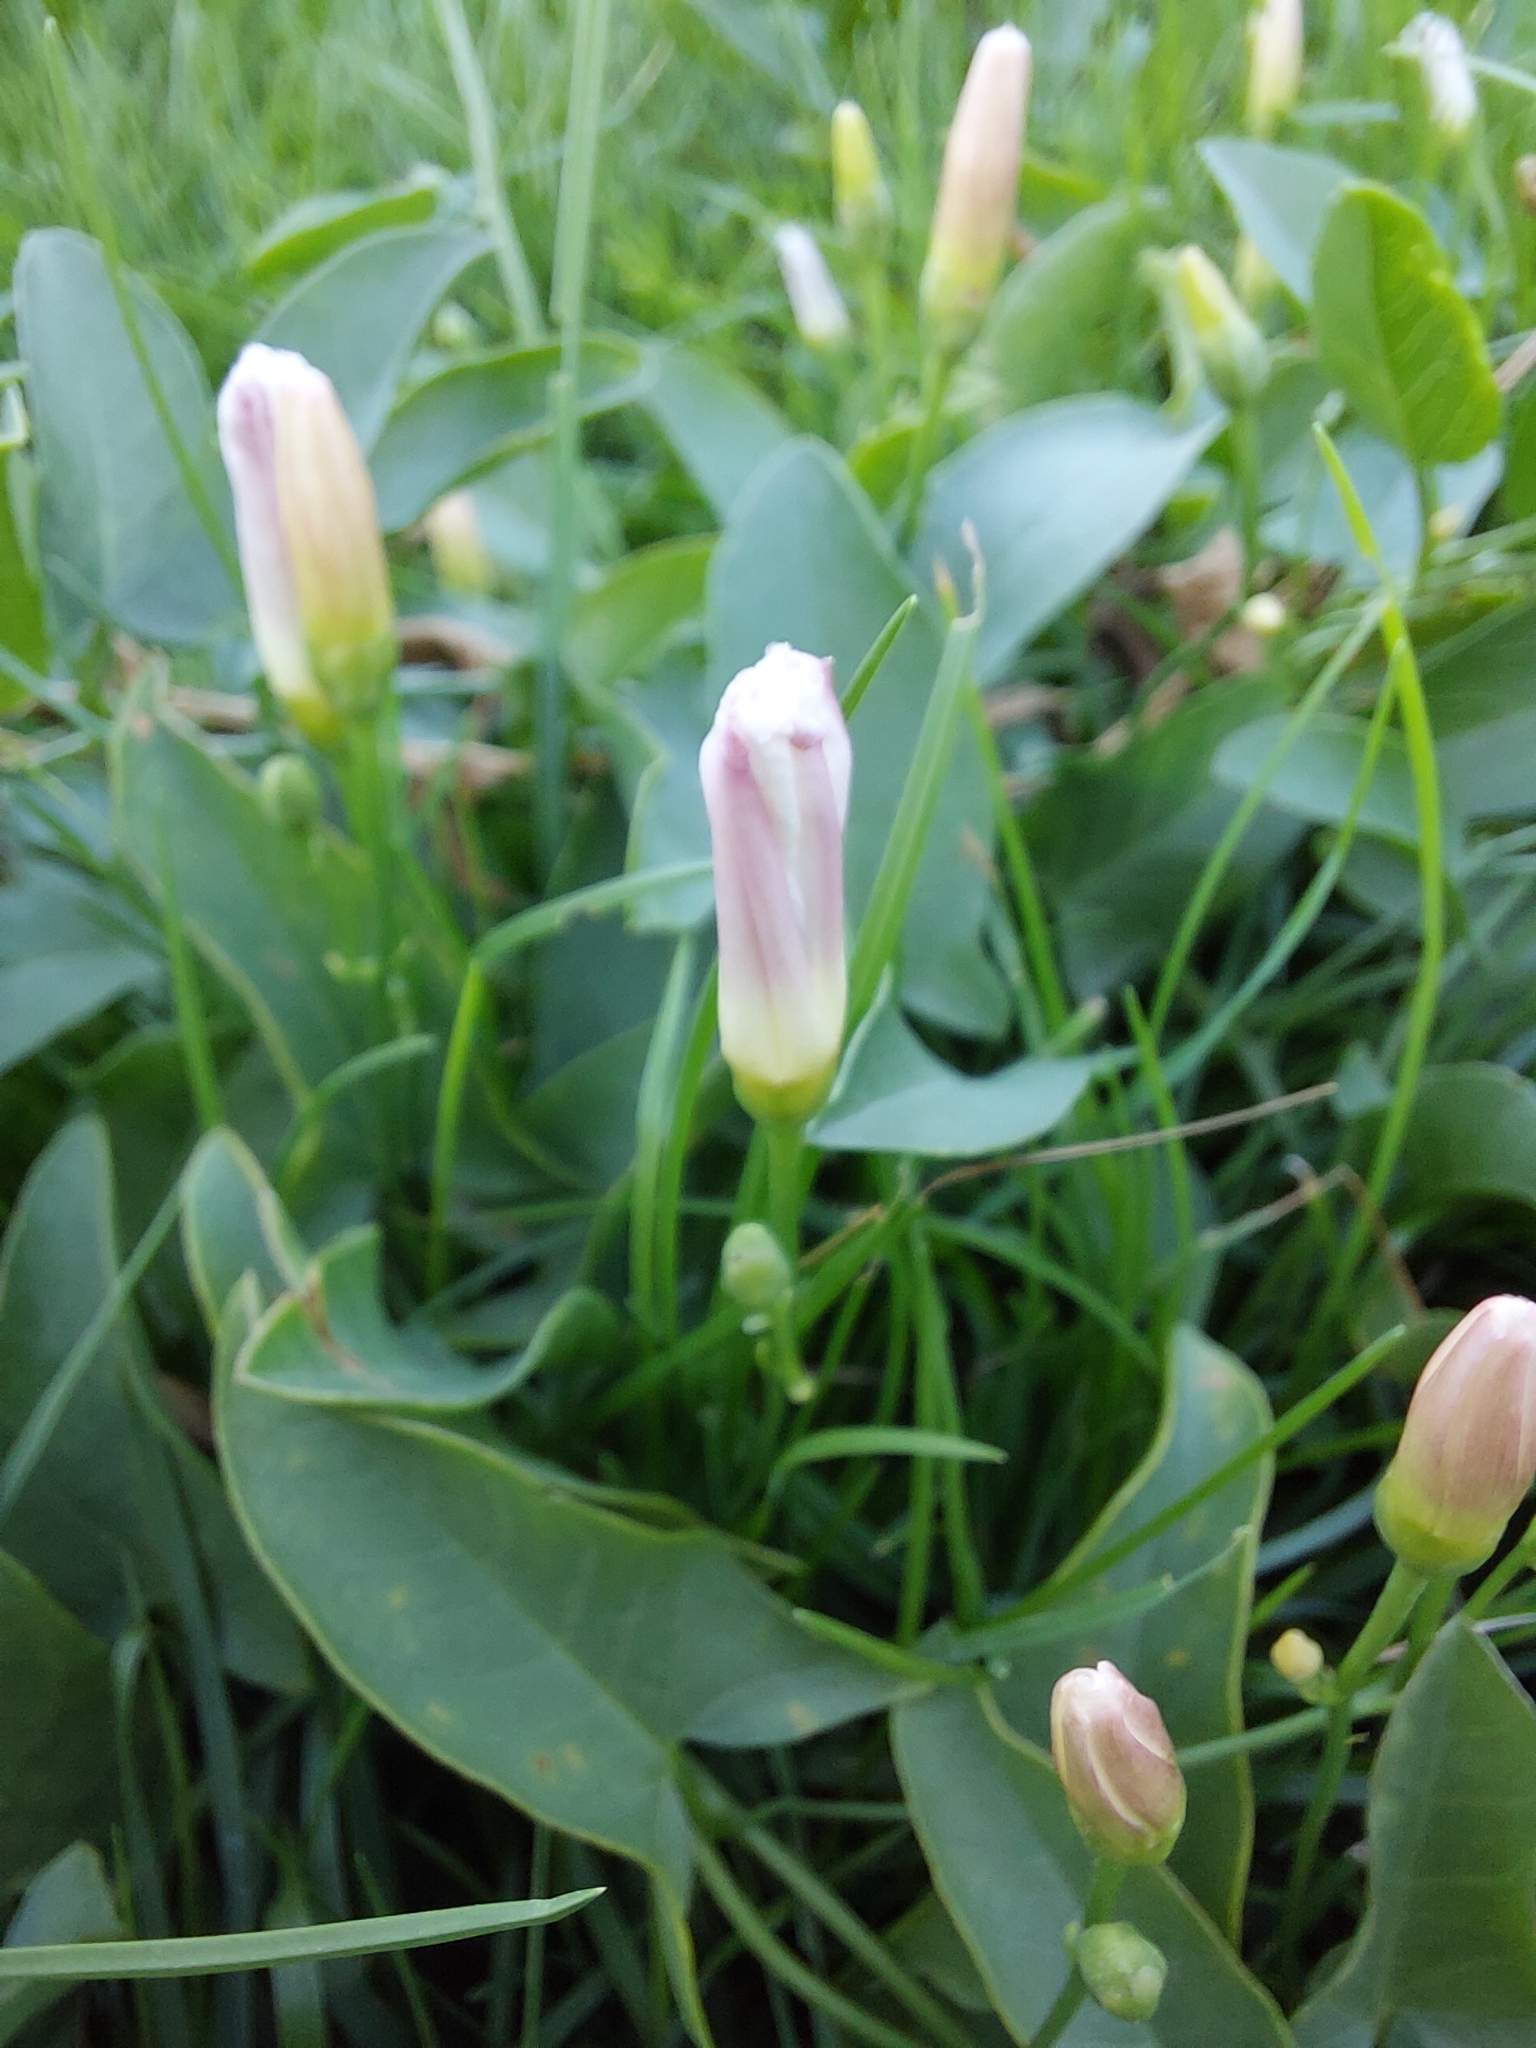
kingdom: Plantae
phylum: Tracheophyta
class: Magnoliopsida
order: Solanales
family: Convolvulaceae
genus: Convolvulus
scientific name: Convolvulus arvensis
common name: Field bindweed
